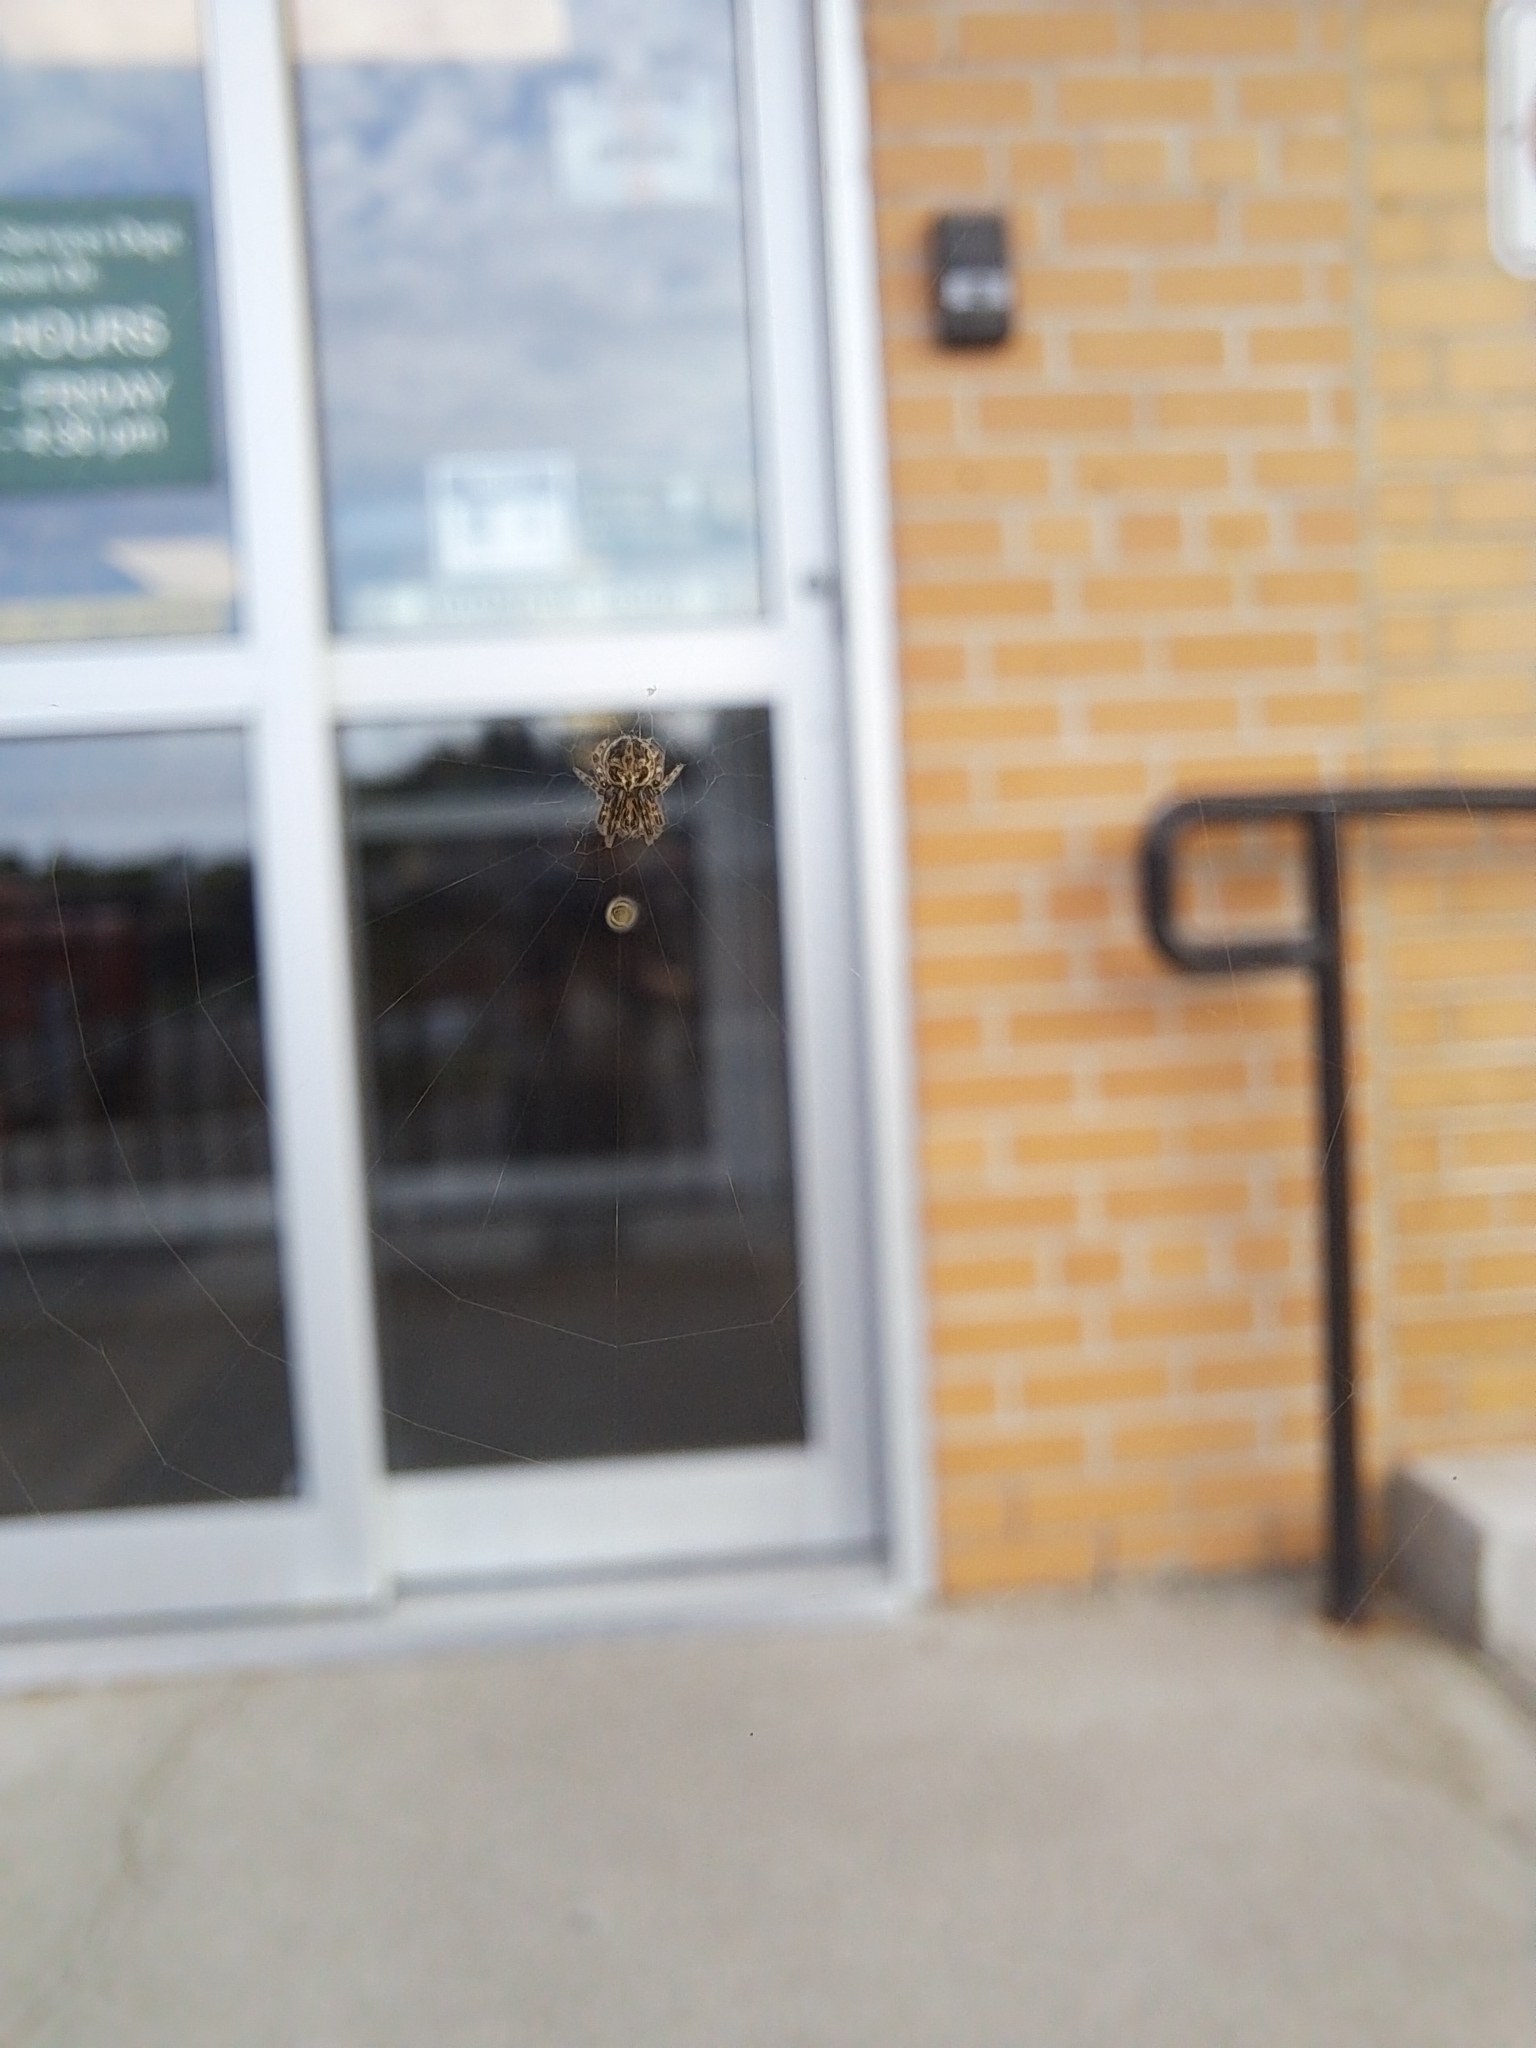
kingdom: Animalia
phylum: Arthropoda
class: Arachnida
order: Araneae
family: Araneidae
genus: Larinioides
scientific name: Larinioides sclopetarius
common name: Bridge orbweaver
